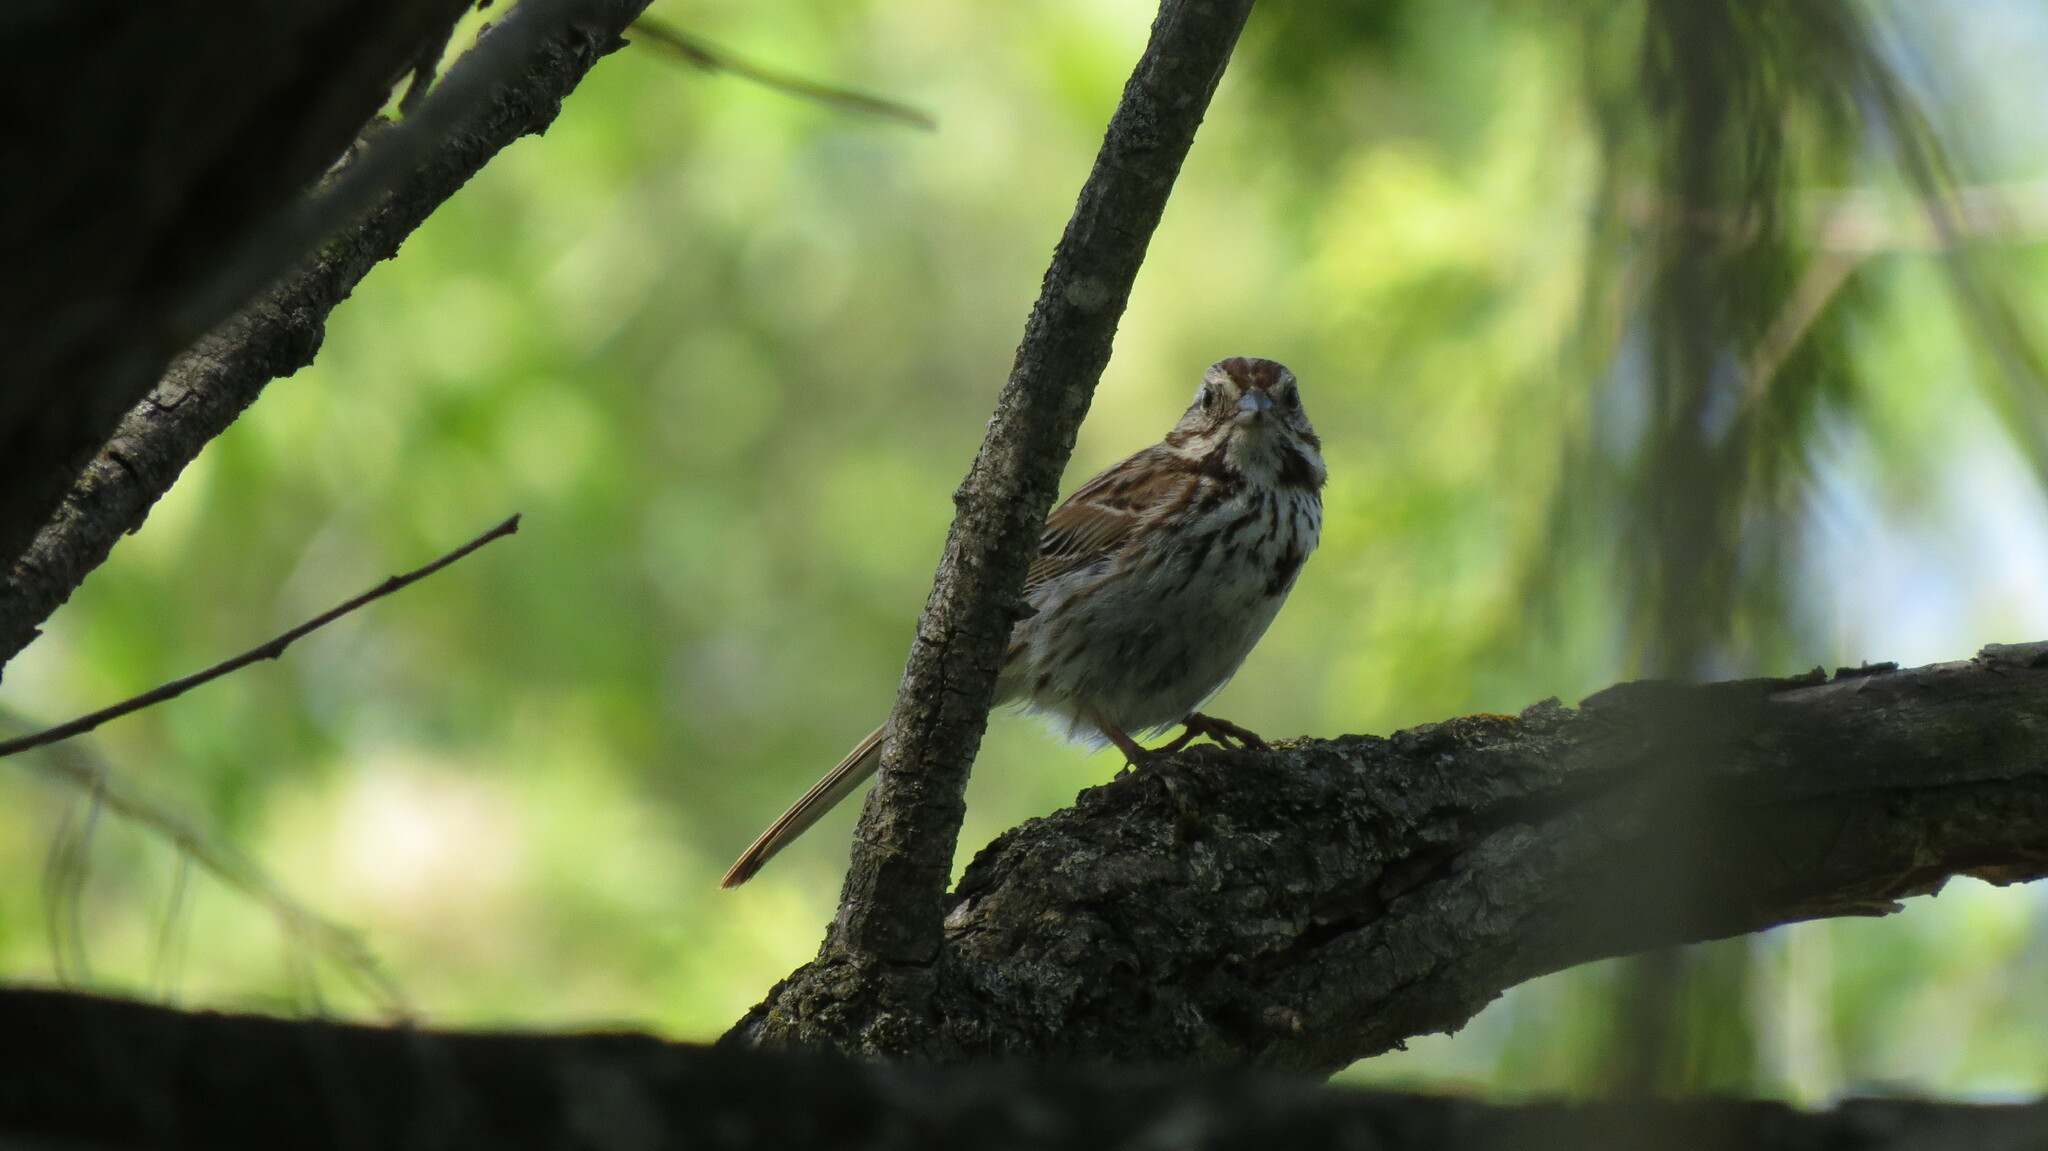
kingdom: Animalia
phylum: Chordata
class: Aves
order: Passeriformes
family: Passerellidae
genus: Melospiza
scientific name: Melospiza melodia
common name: Song sparrow
